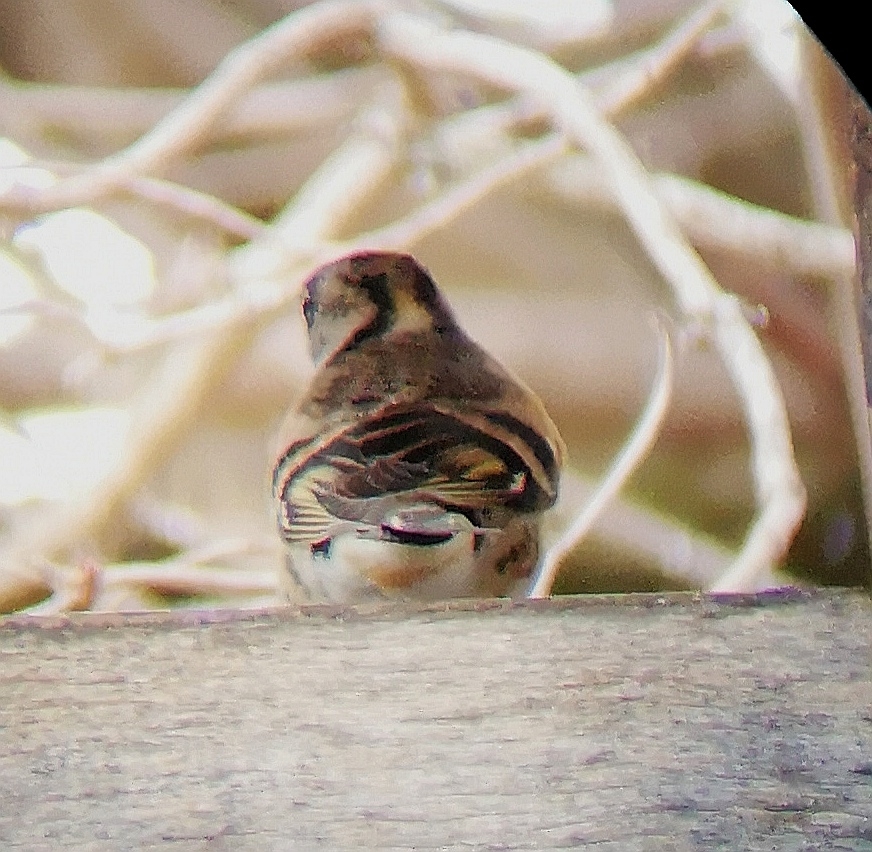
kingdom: Animalia
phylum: Chordata
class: Aves
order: Passeriformes
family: Fringillidae
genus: Fringilla
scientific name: Fringilla montifringilla
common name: Brambling
